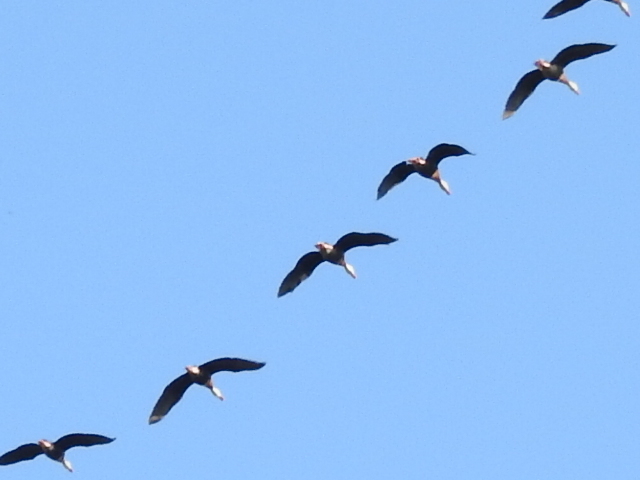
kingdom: Animalia
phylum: Chordata
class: Aves
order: Anseriformes
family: Anatidae
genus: Dendrocygna
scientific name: Dendrocygna autumnalis
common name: Black-bellied whistling duck
